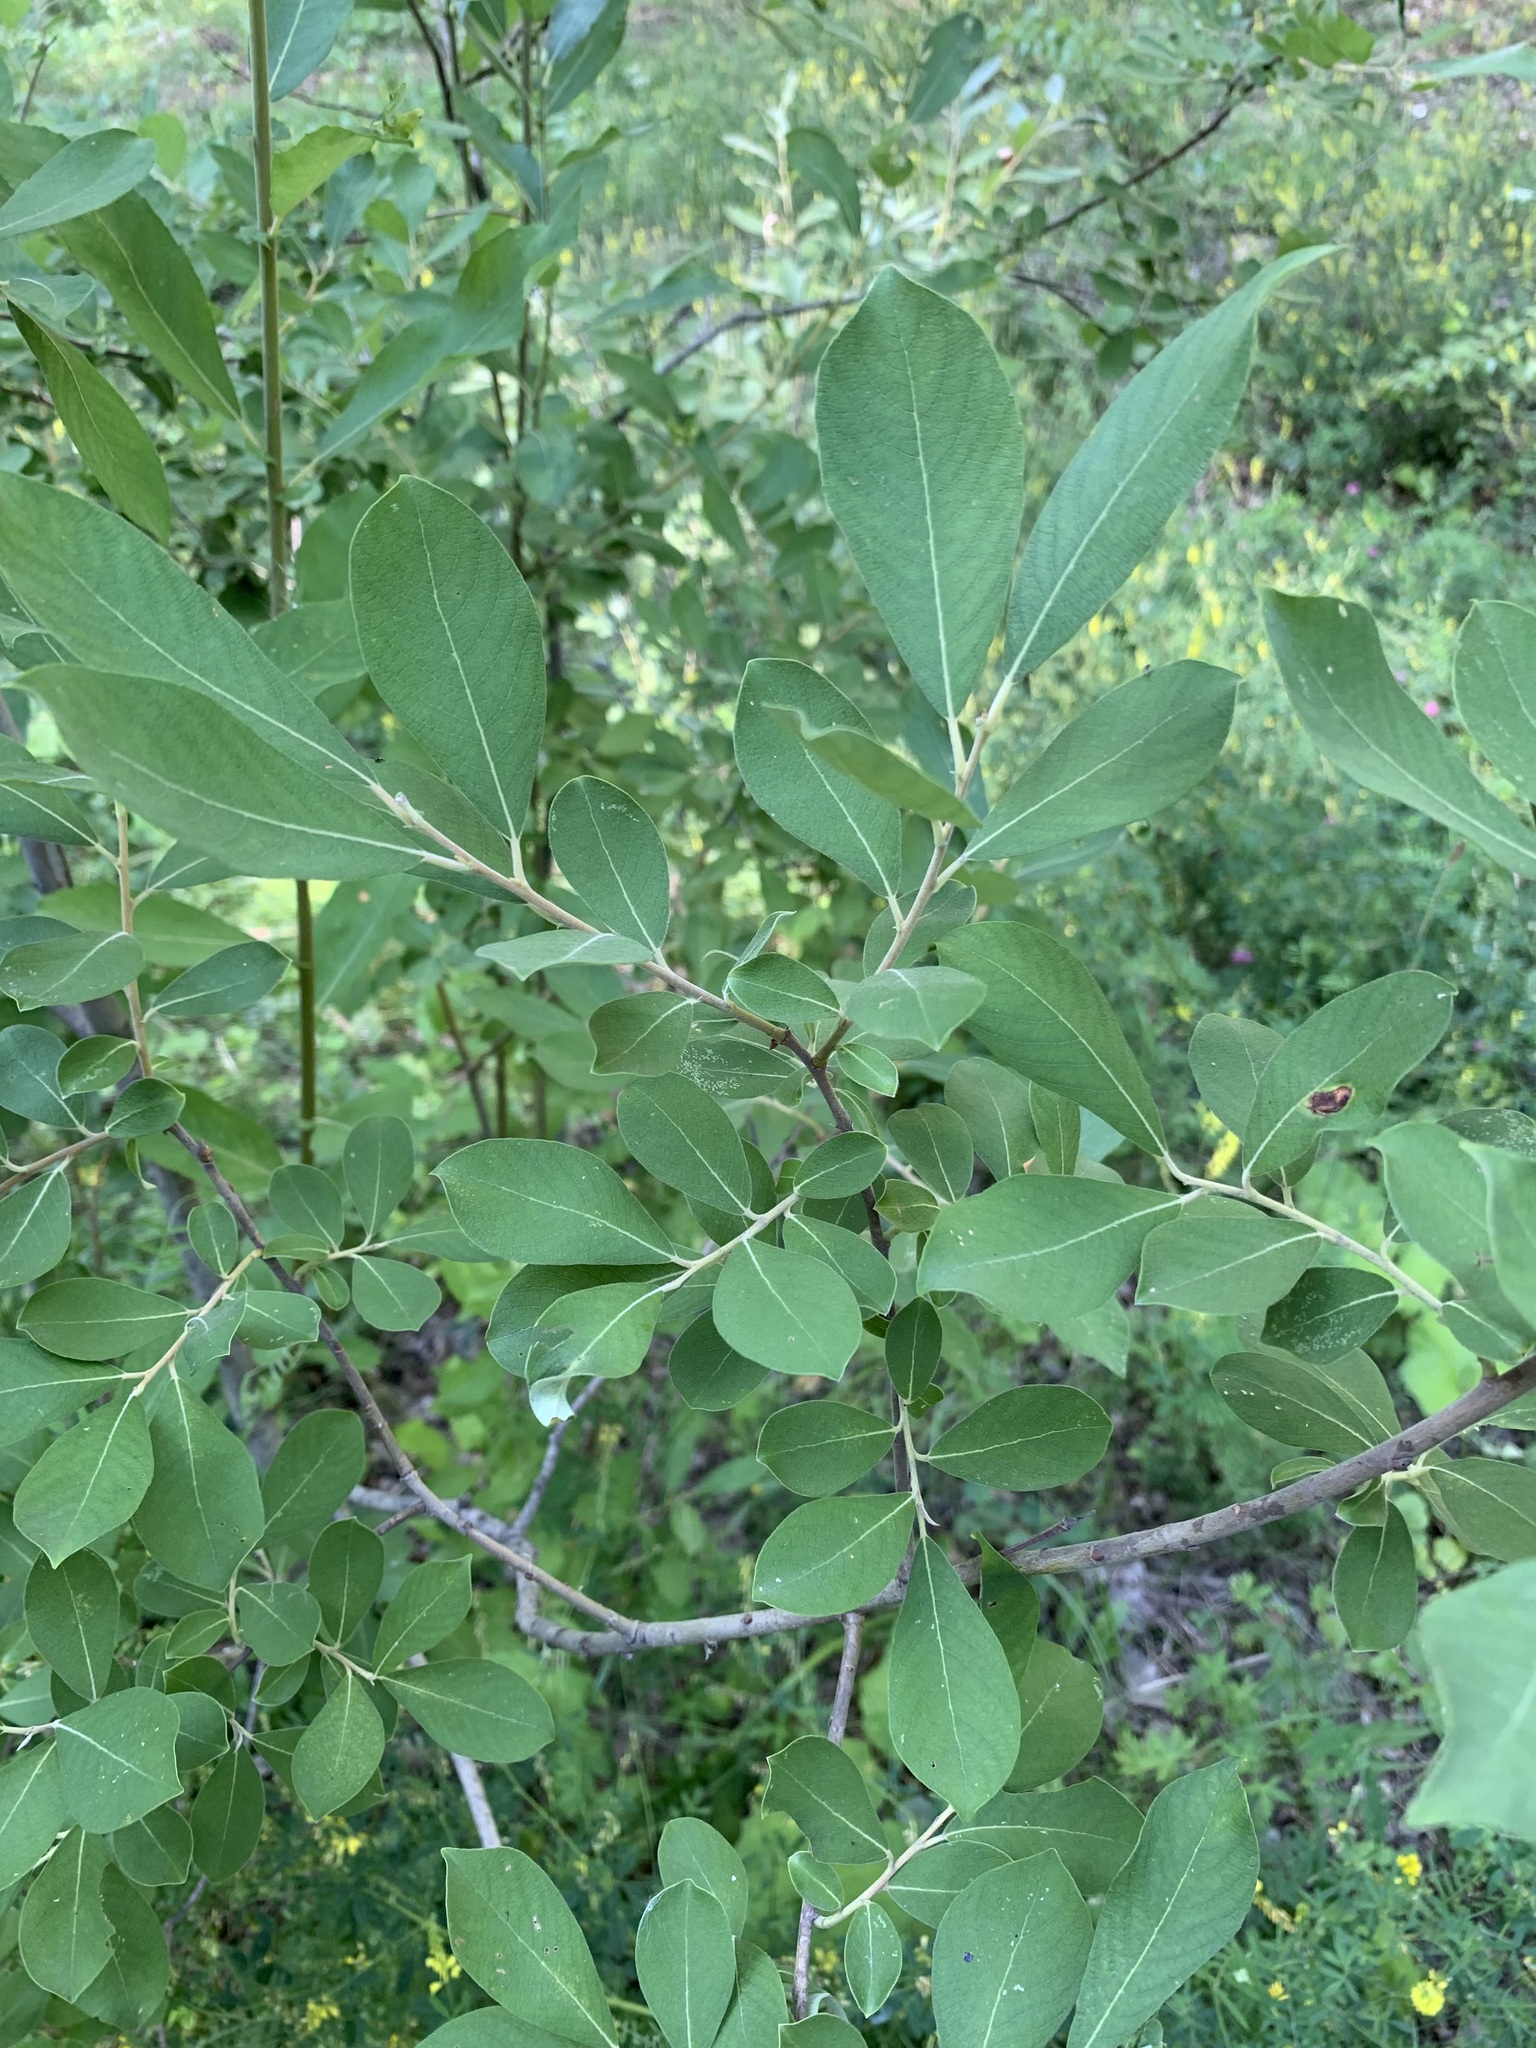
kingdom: Plantae
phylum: Tracheophyta
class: Magnoliopsida
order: Malpighiales
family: Salicaceae
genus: Salix
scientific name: Salix cinerea
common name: Common sallow
